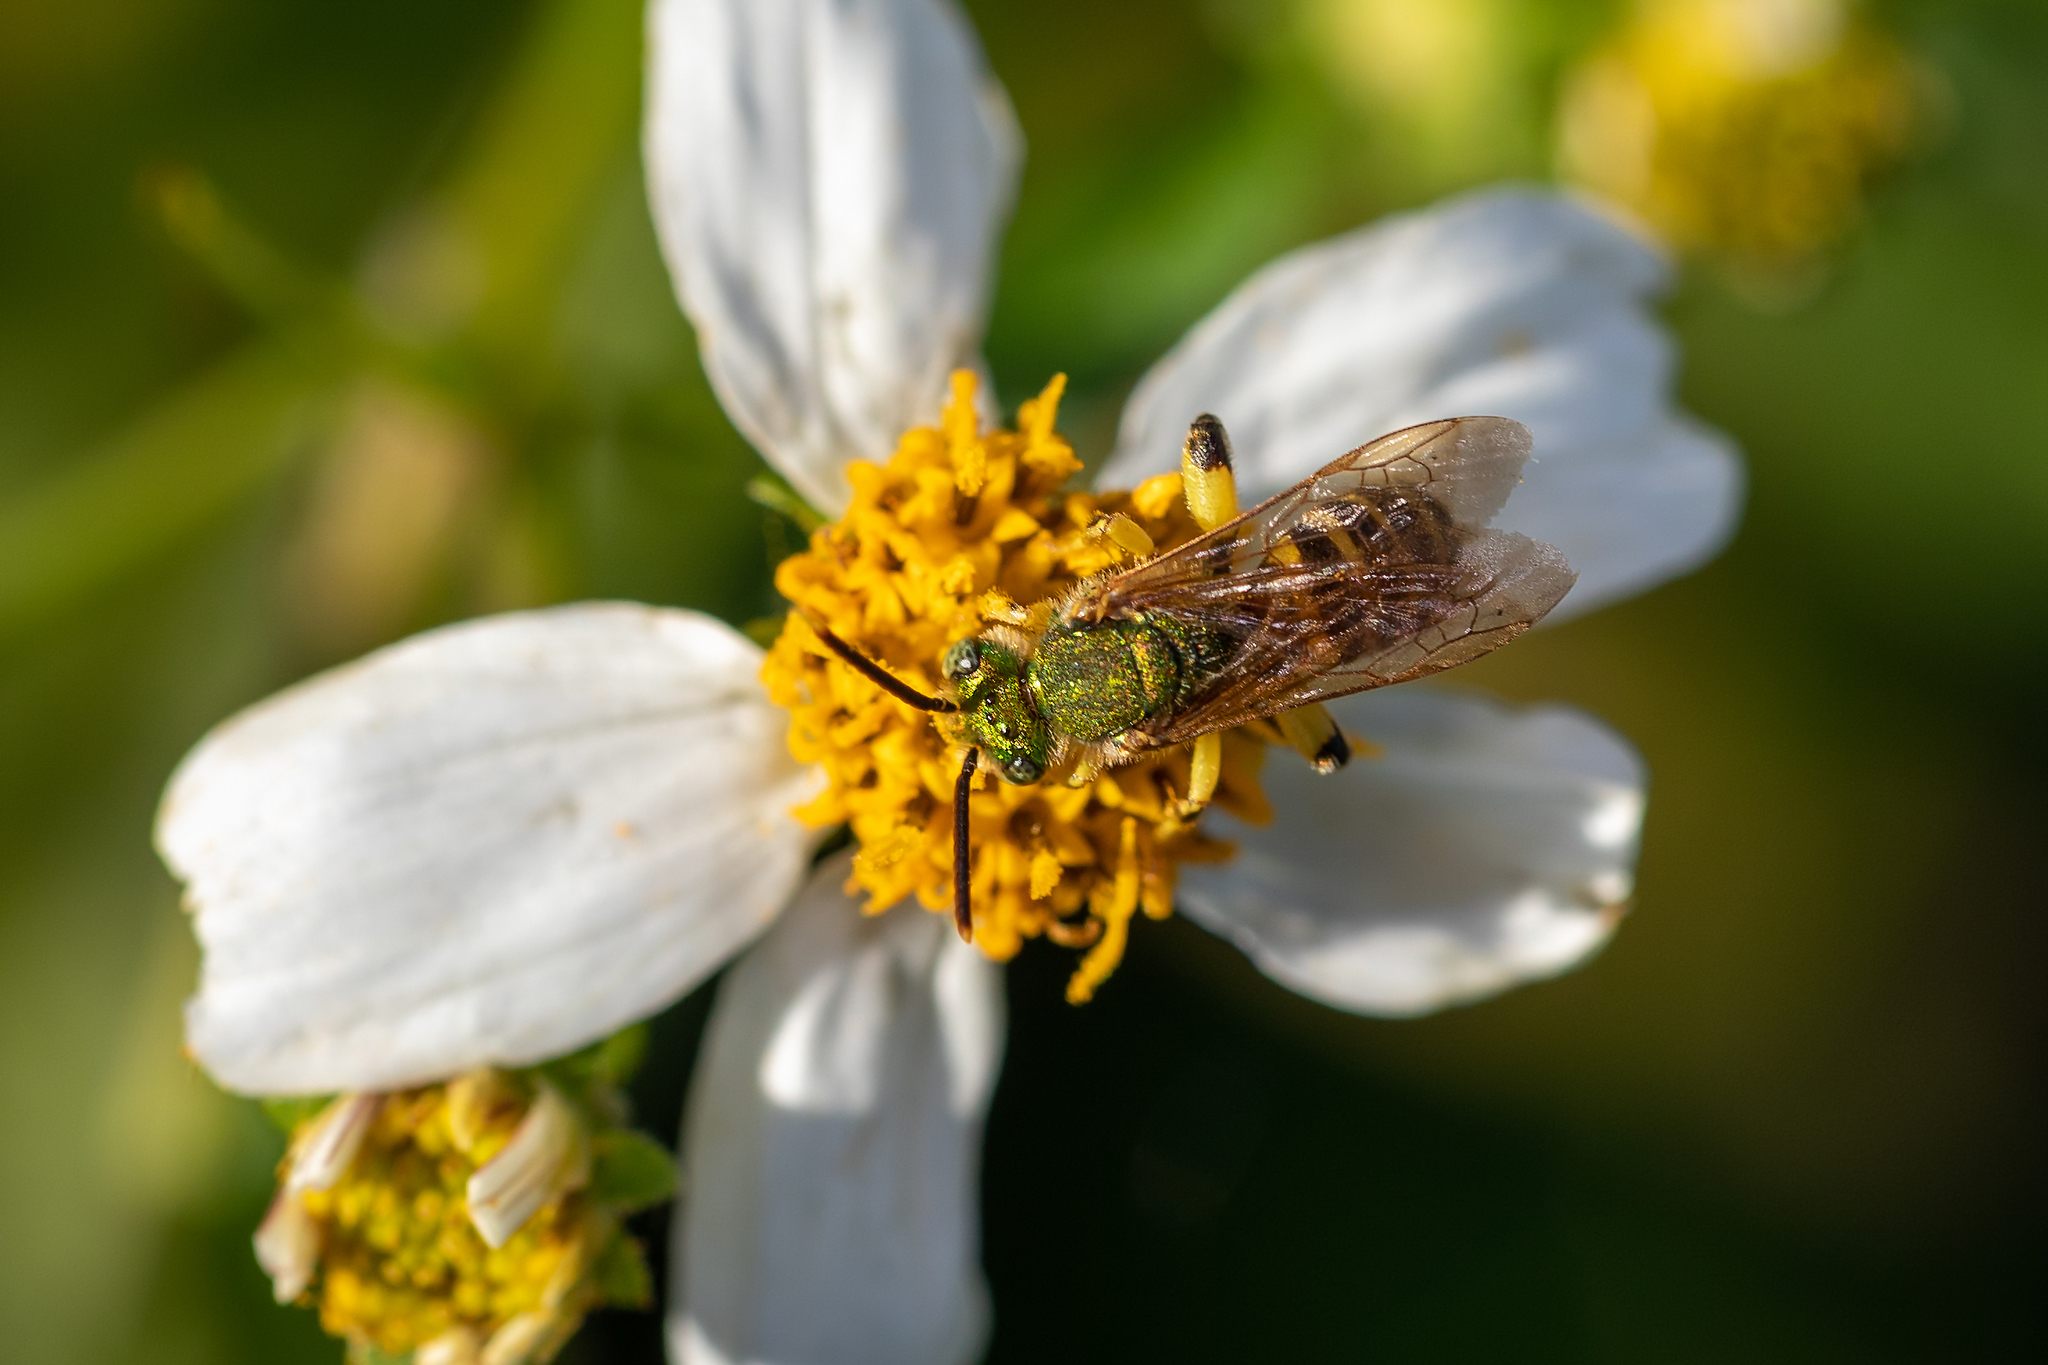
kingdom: Animalia
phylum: Arthropoda
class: Insecta
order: Hymenoptera
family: Halictidae
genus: Agapostemon
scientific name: Agapostemon splendens
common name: Brown-winged striped sweat bee
